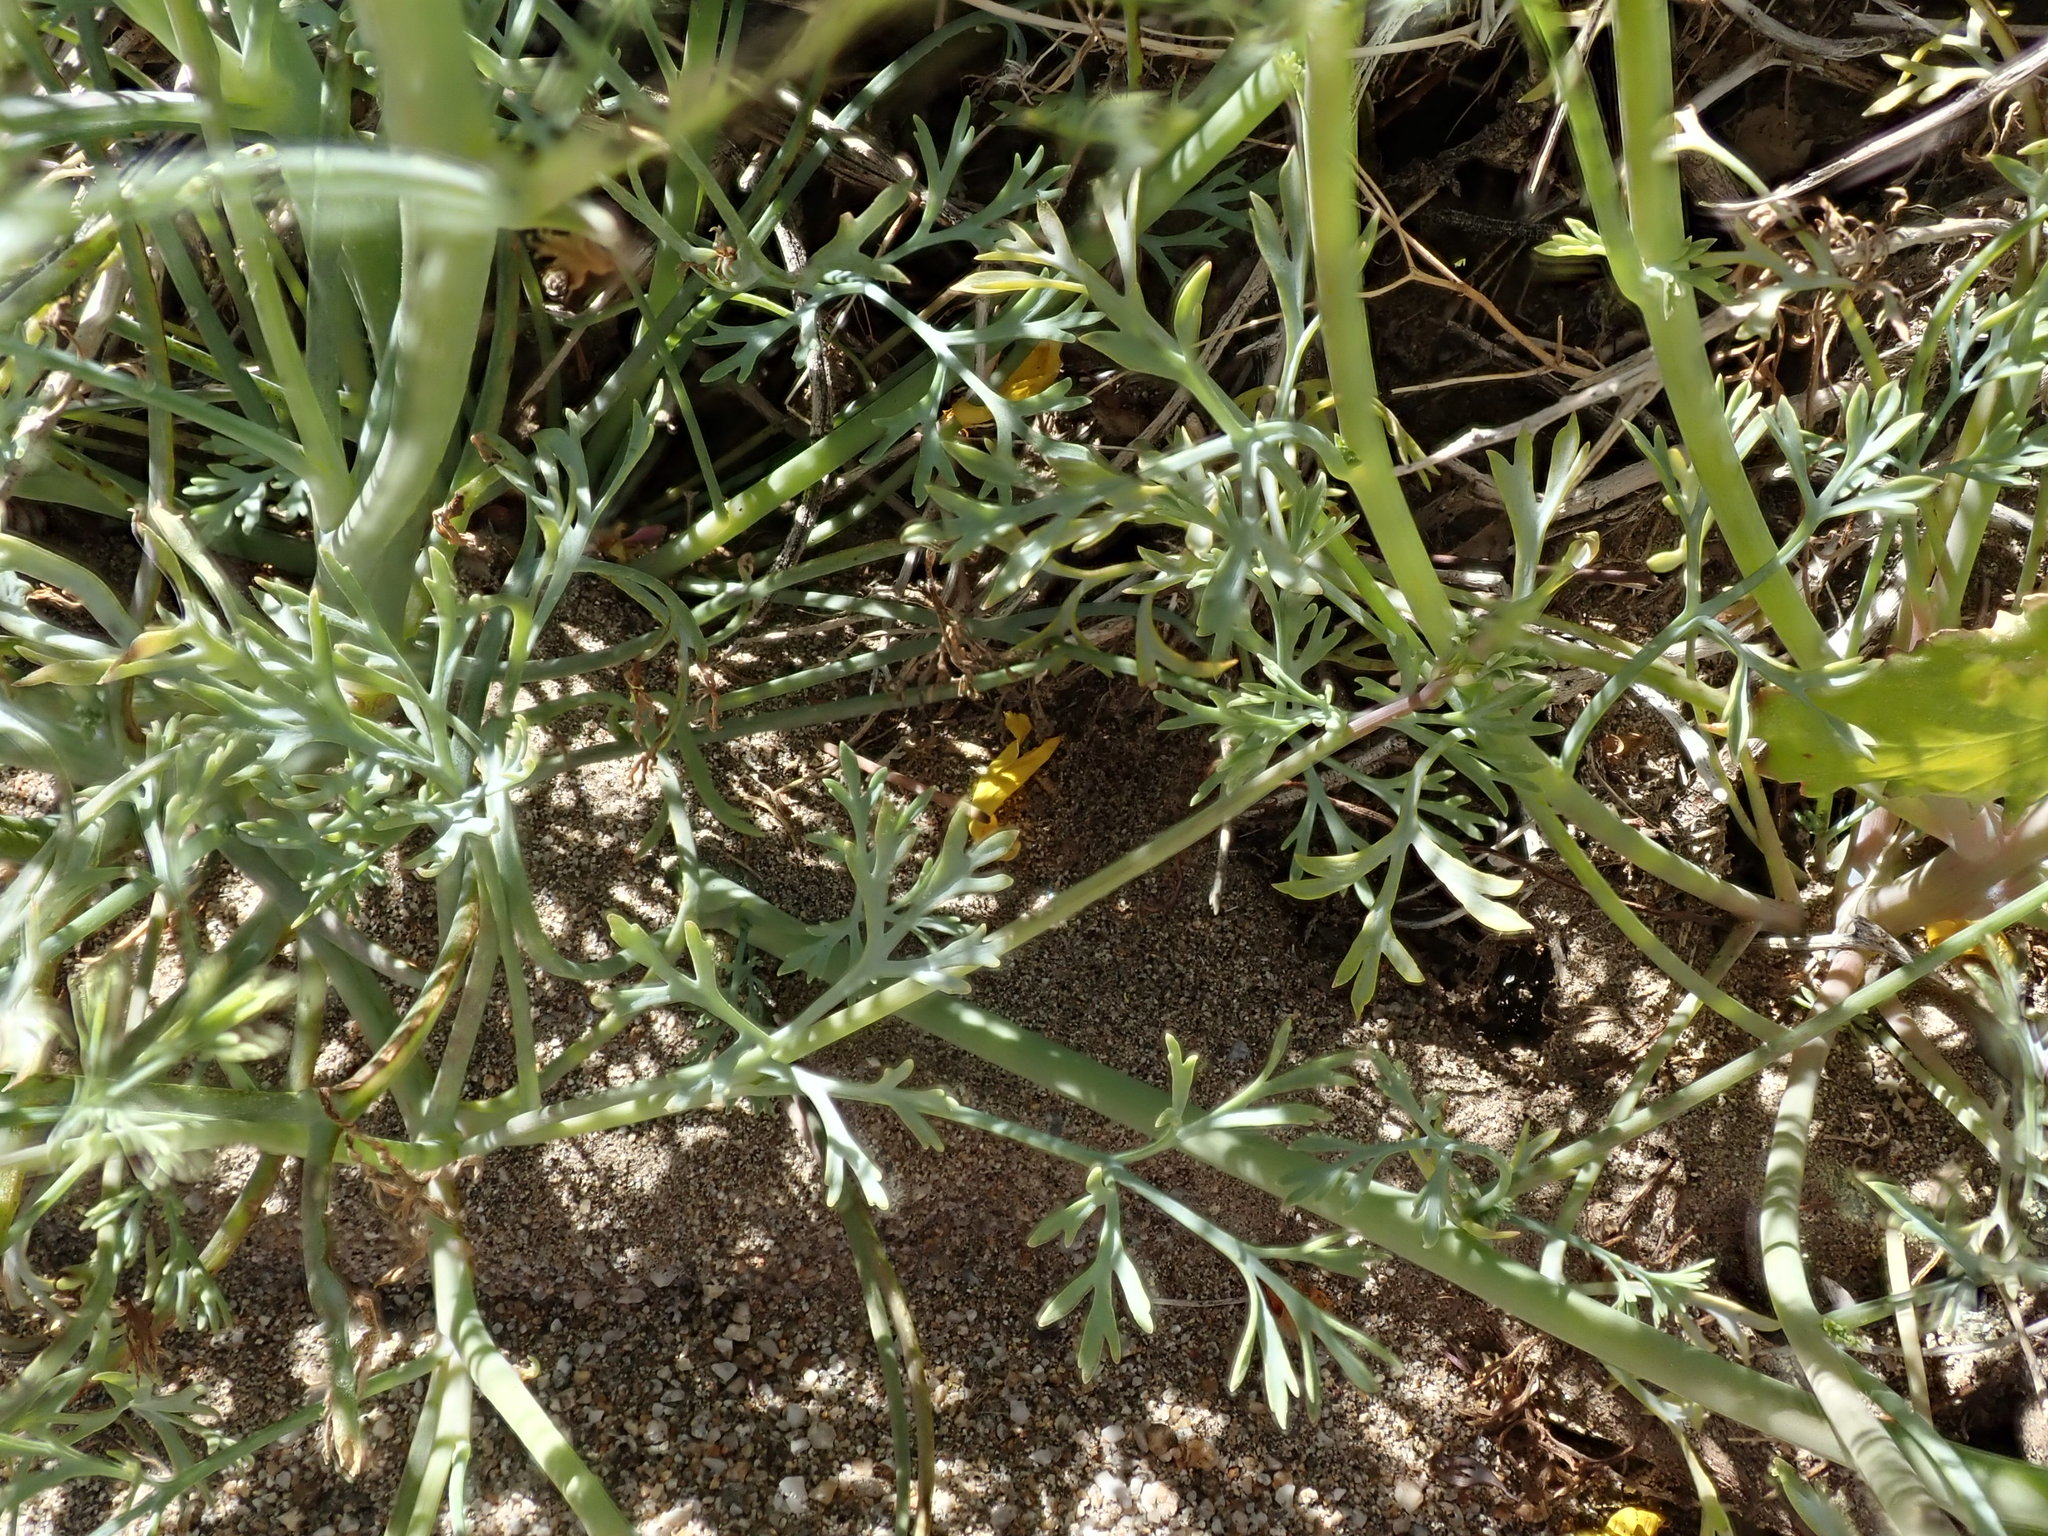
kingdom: Plantae
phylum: Tracheophyta
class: Magnoliopsida
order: Ranunculales
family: Papaveraceae
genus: Eschscholzia
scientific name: Eschscholzia parishii
